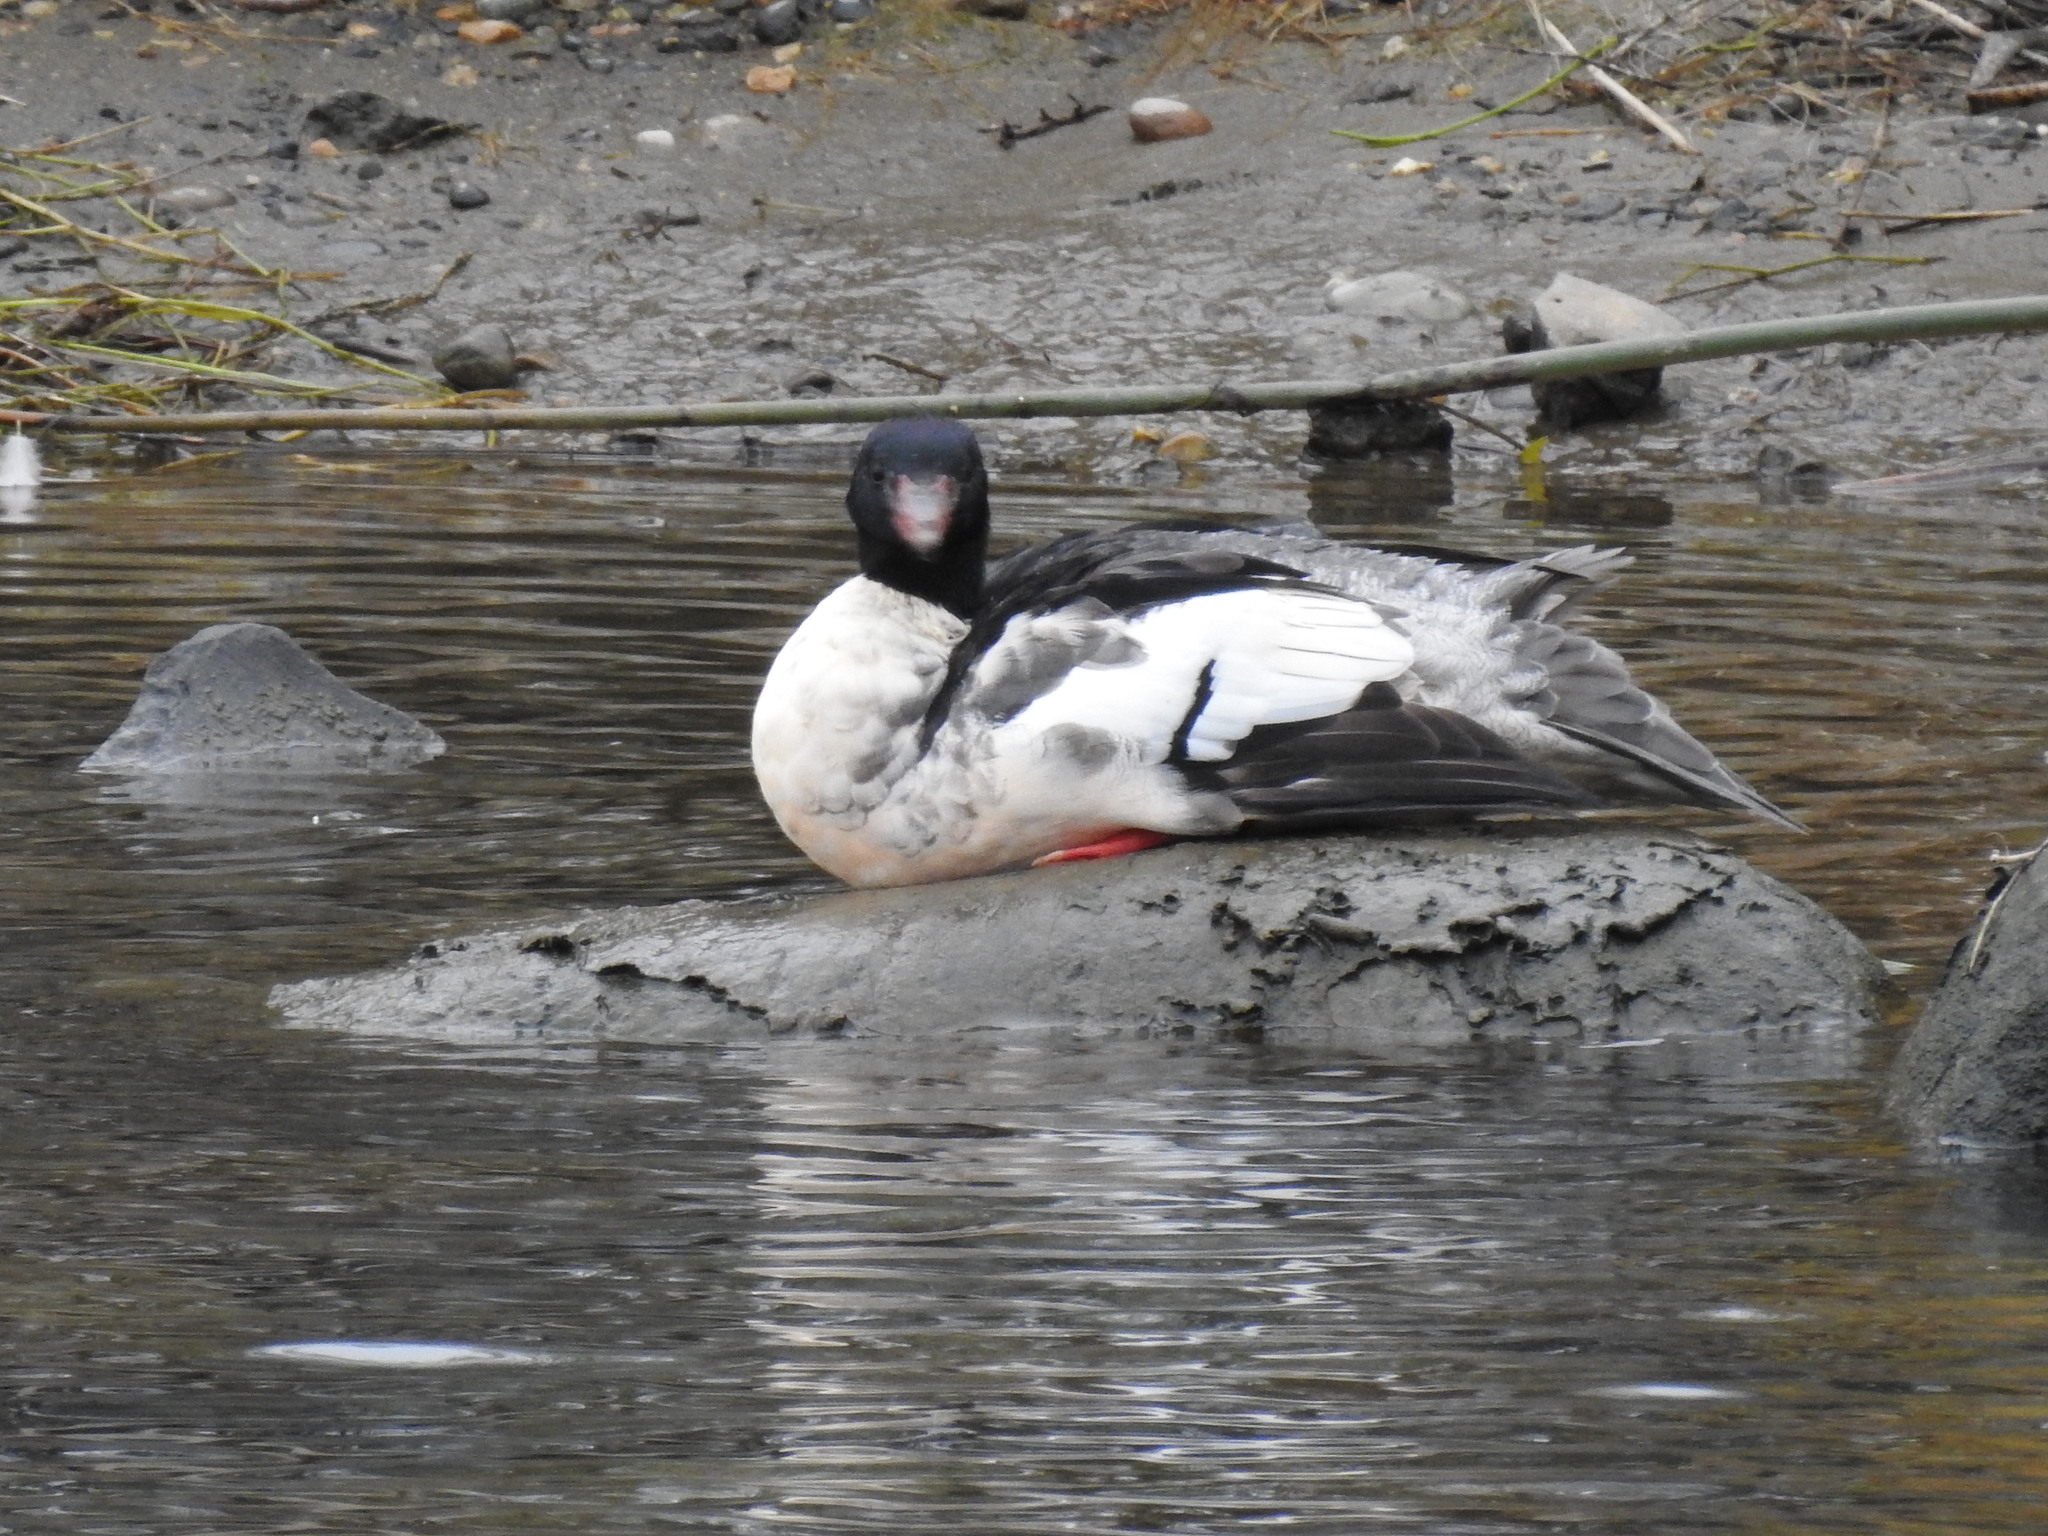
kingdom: Animalia
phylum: Chordata
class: Aves
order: Anseriformes
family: Anatidae
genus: Mergus
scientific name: Mergus merganser
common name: Common merganser
